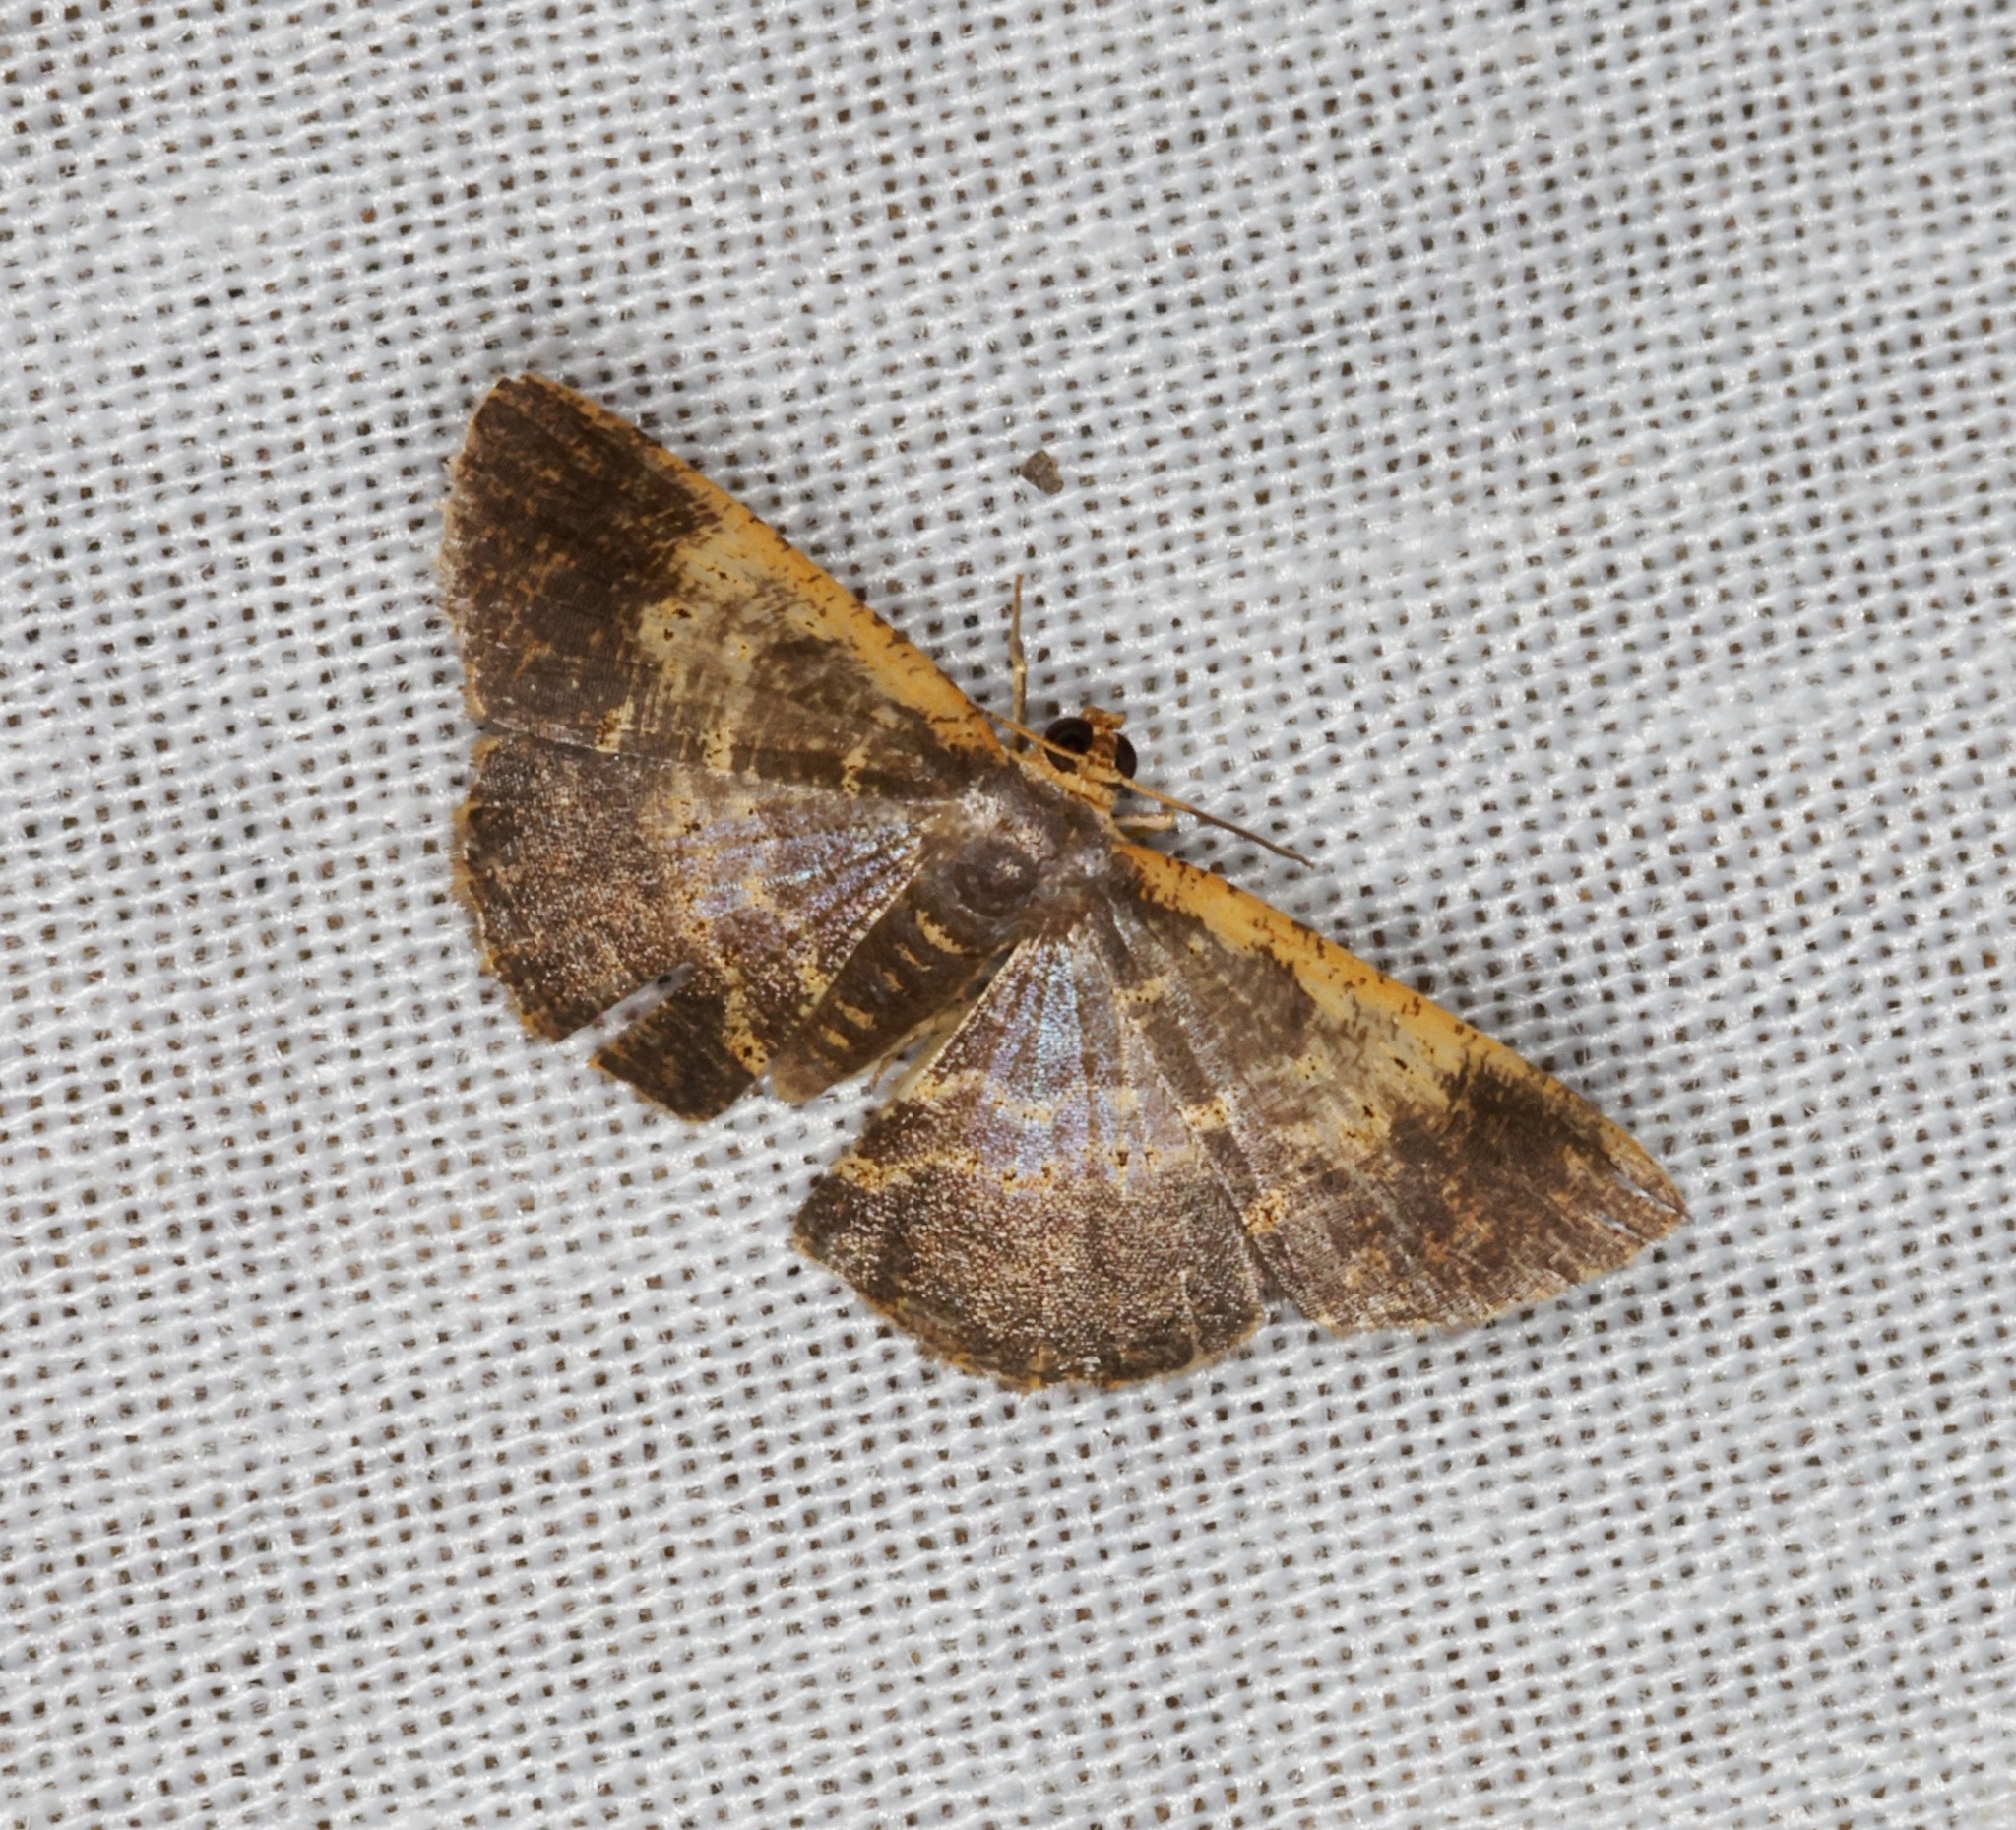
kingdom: Animalia
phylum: Arthropoda
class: Insecta
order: Lepidoptera
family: Geometridae
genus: Peratophyga
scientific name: Peratophyga crista
